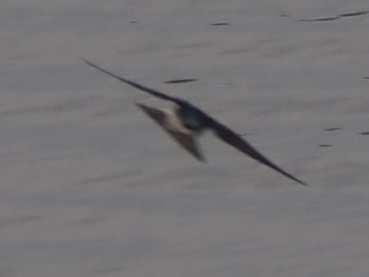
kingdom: Animalia
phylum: Chordata
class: Aves
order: Passeriformes
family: Hirundinidae
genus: Tachycineta
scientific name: Tachycineta bicolor
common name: Tree swallow
